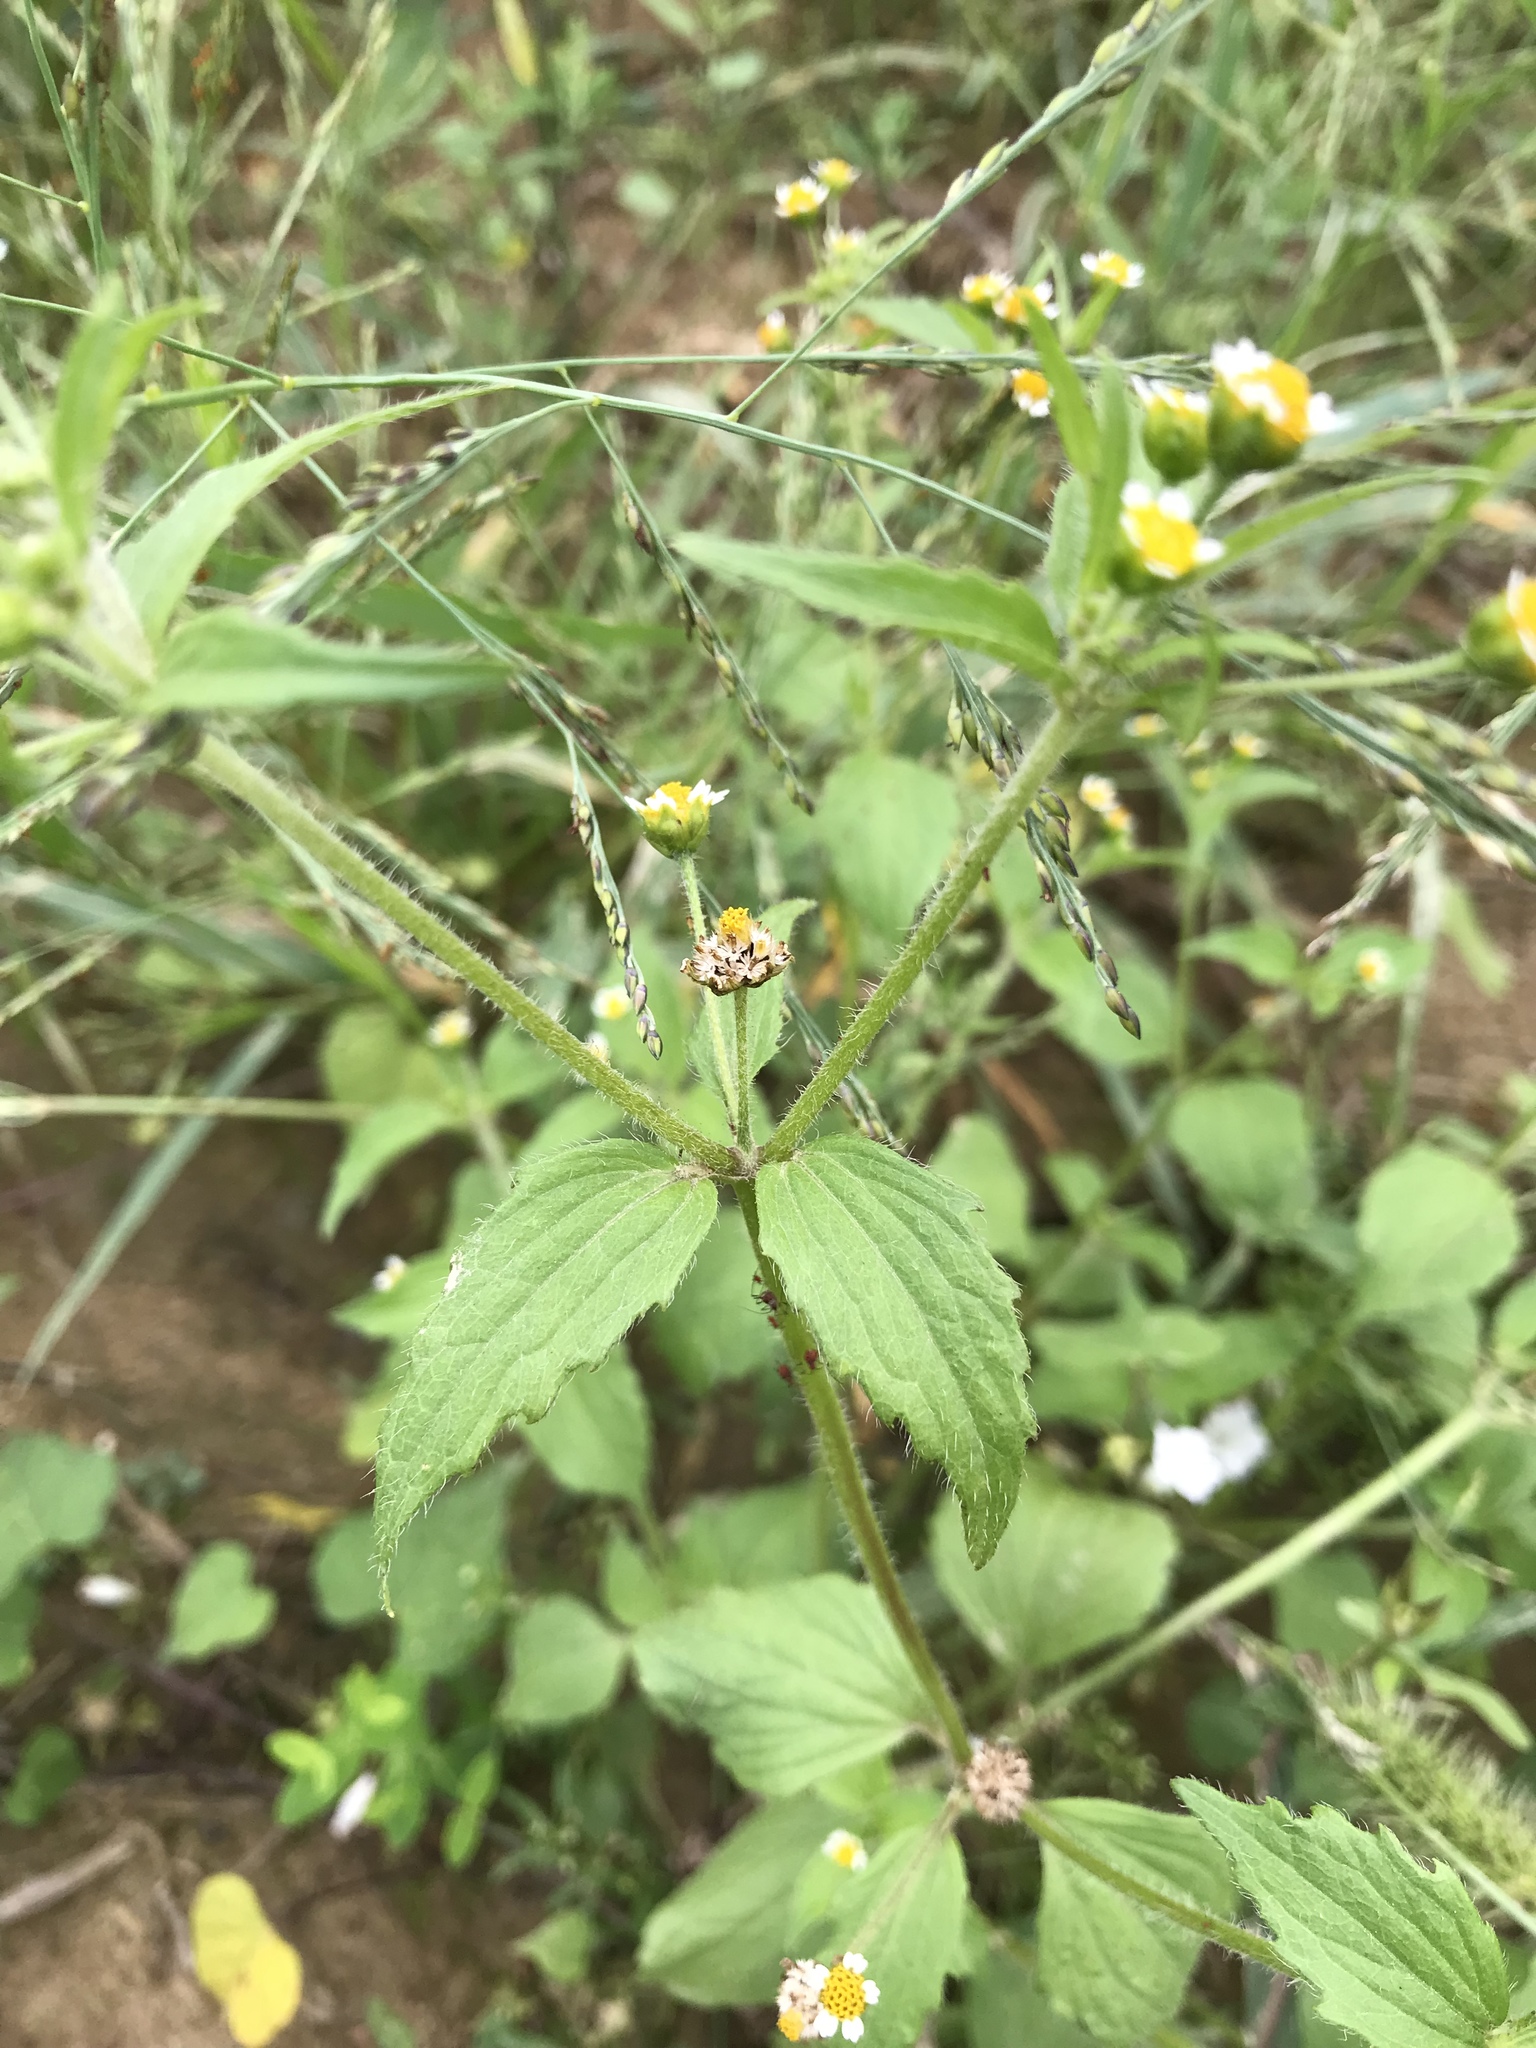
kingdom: Plantae
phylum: Tracheophyta
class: Magnoliopsida
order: Asterales
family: Asteraceae
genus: Galinsoga
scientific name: Galinsoga quadriradiata
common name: Shaggy soldier
